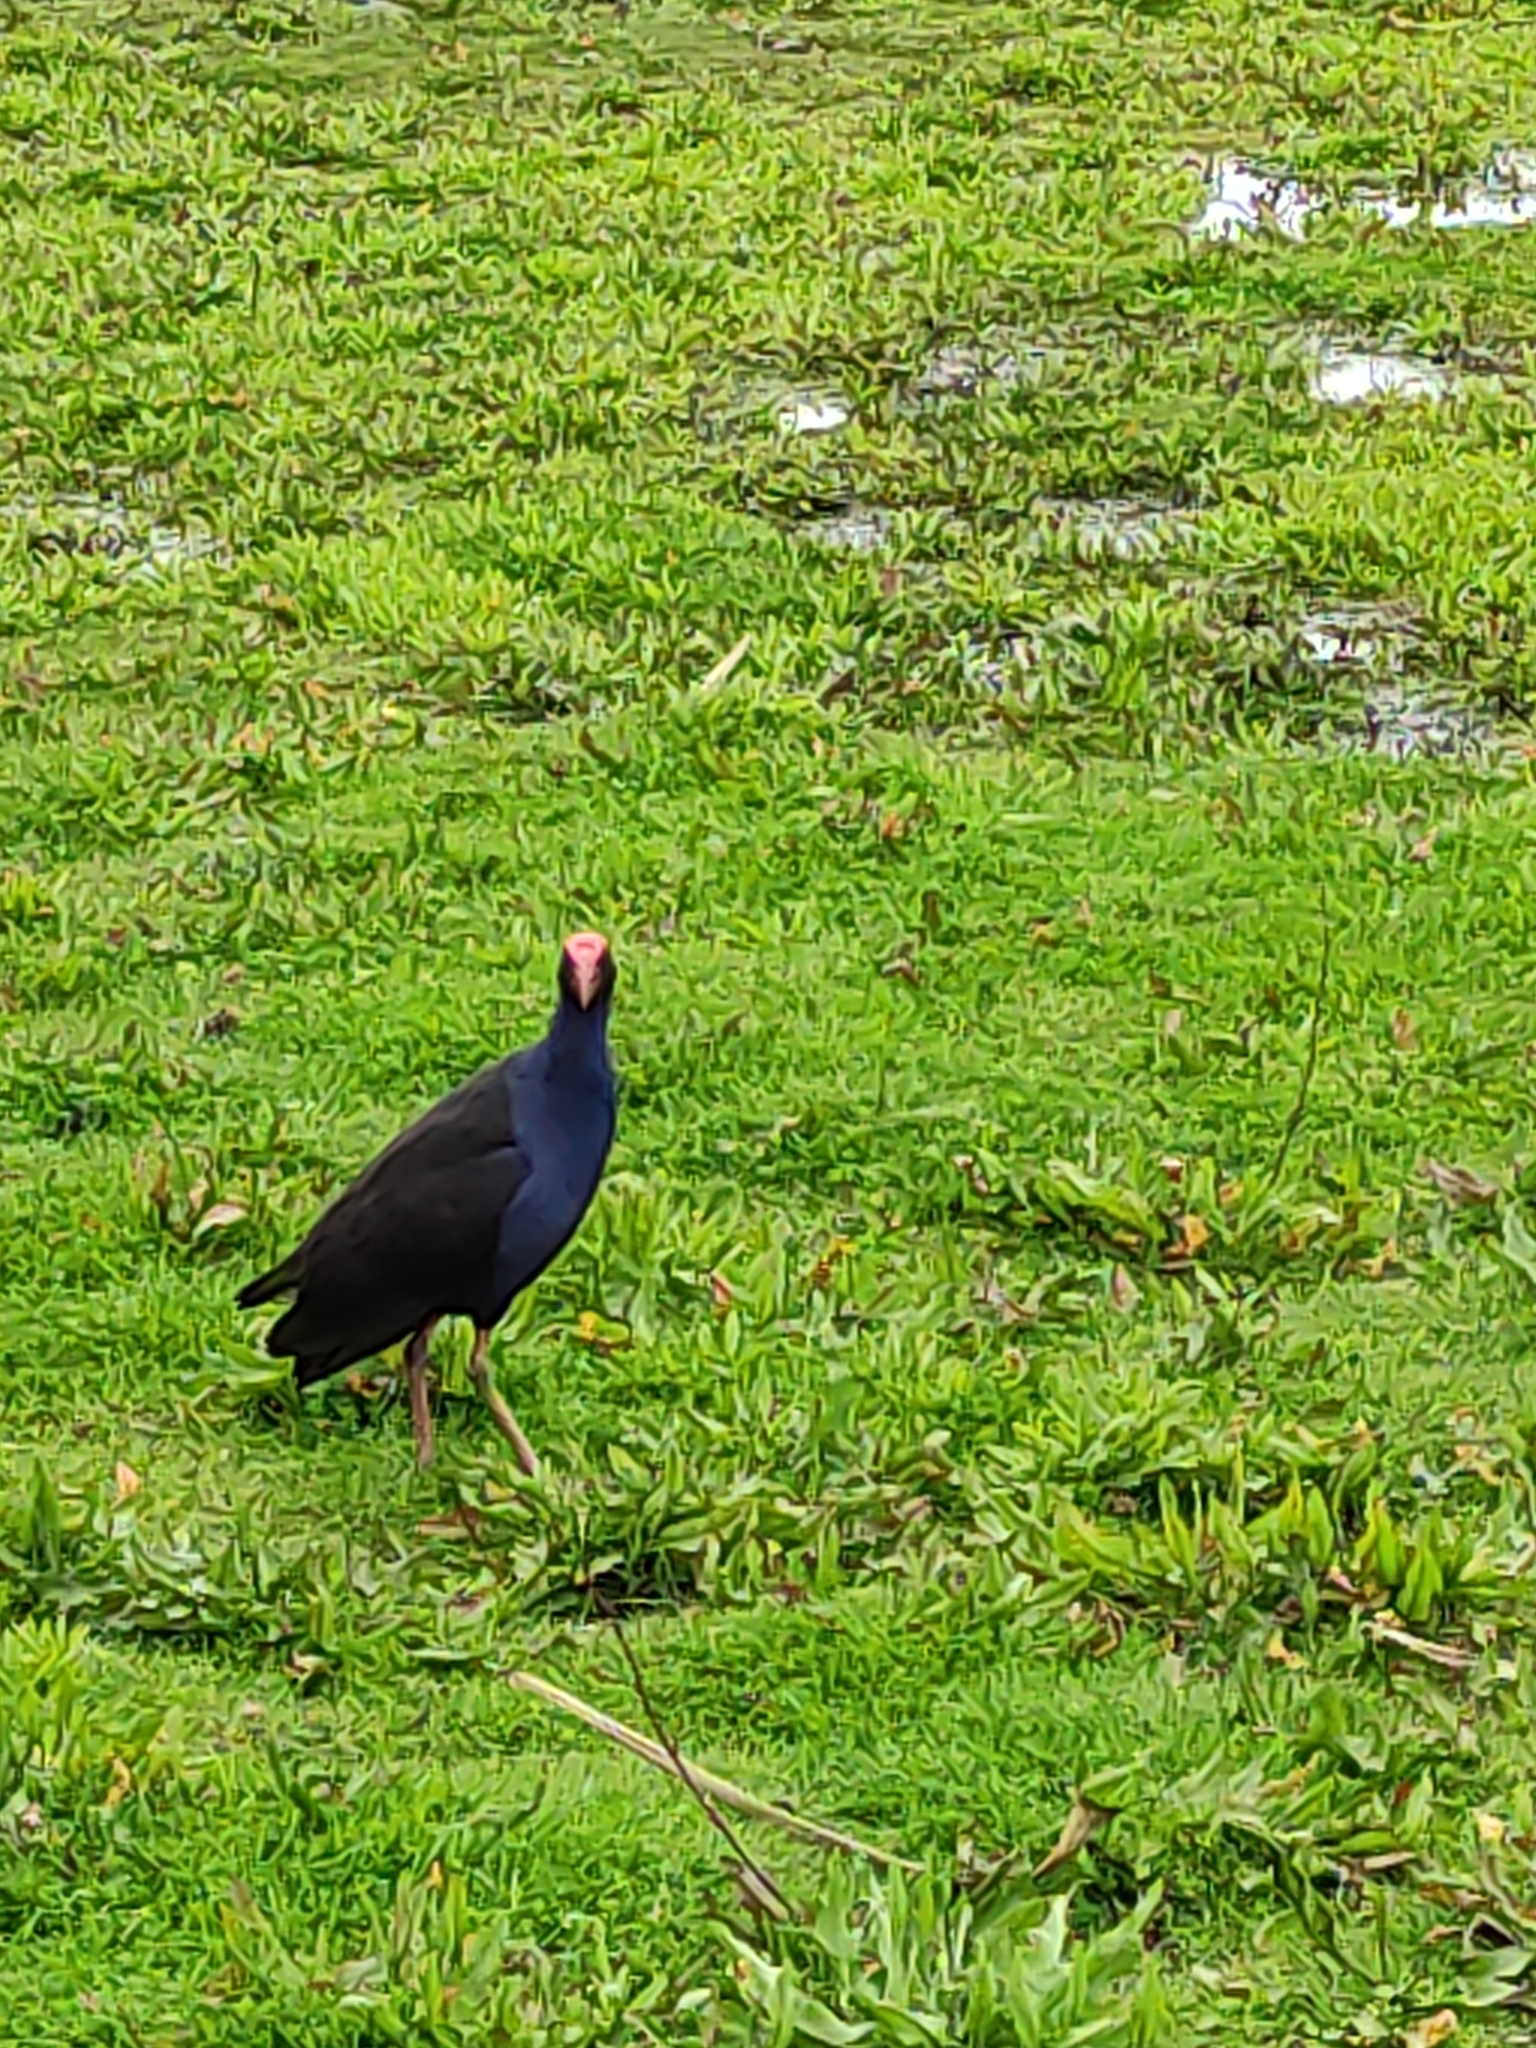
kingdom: Animalia
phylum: Chordata
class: Aves
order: Gruiformes
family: Rallidae
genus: Porphyrio
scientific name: Porphyrio melanotus
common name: Australasian swamphen
